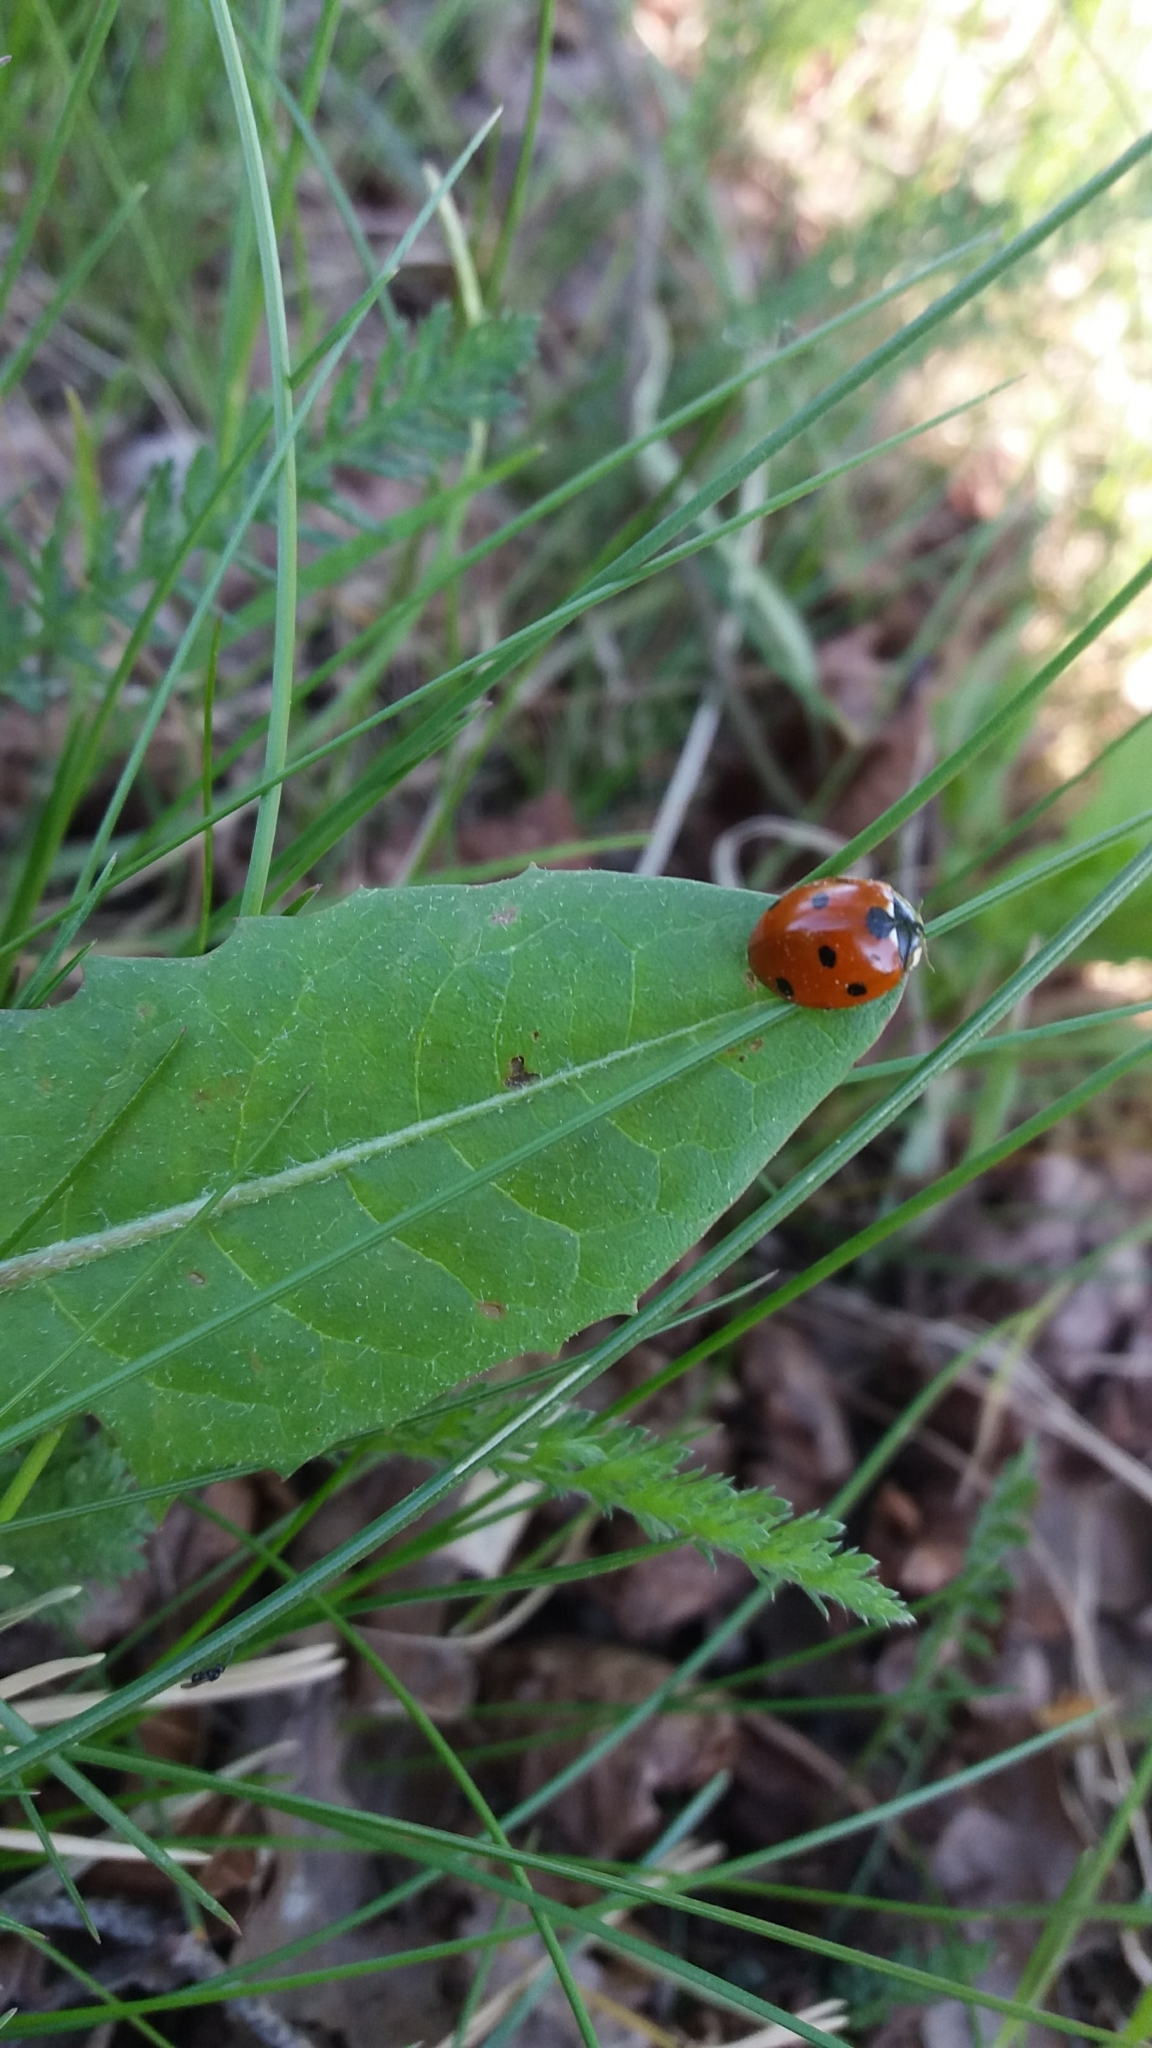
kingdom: Animalia
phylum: Arthropoda
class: Insecta
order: Coleoptera
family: Coccinellidae
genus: Coccinella
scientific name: Coccinella septempunctata
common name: Sevenspotted lady beetle
